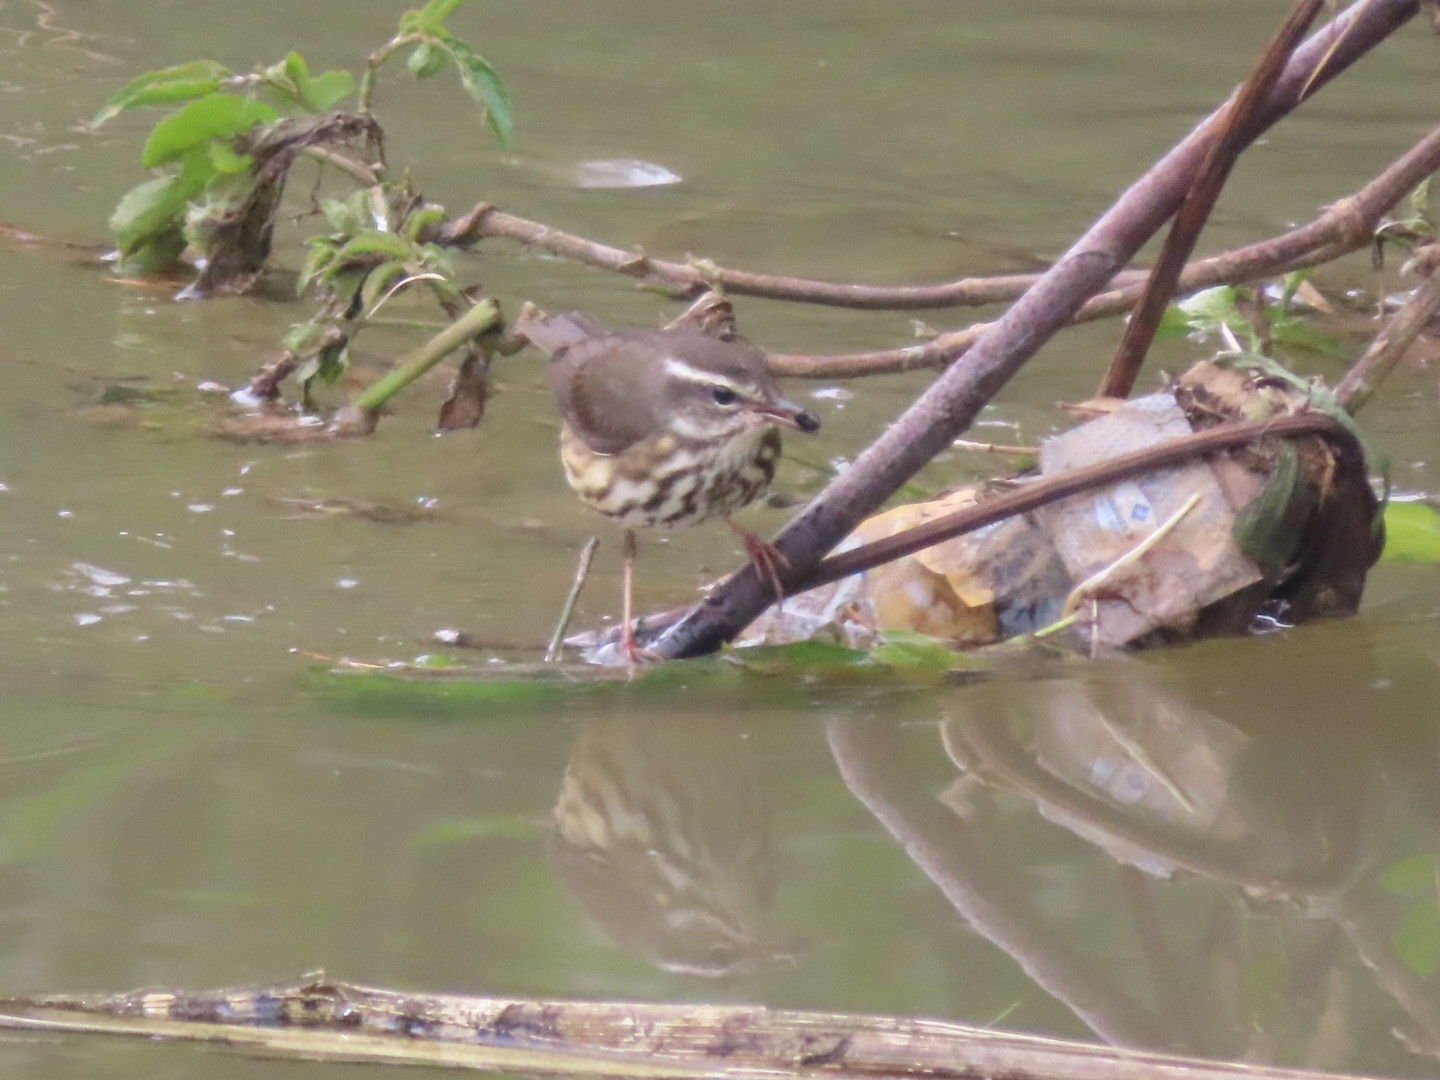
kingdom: Animalia
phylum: Chordata
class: Aves
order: Passeriformes
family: Parulidae
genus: Parkesia
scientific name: Parkesia motacilla
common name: Louisiana waterthrush
